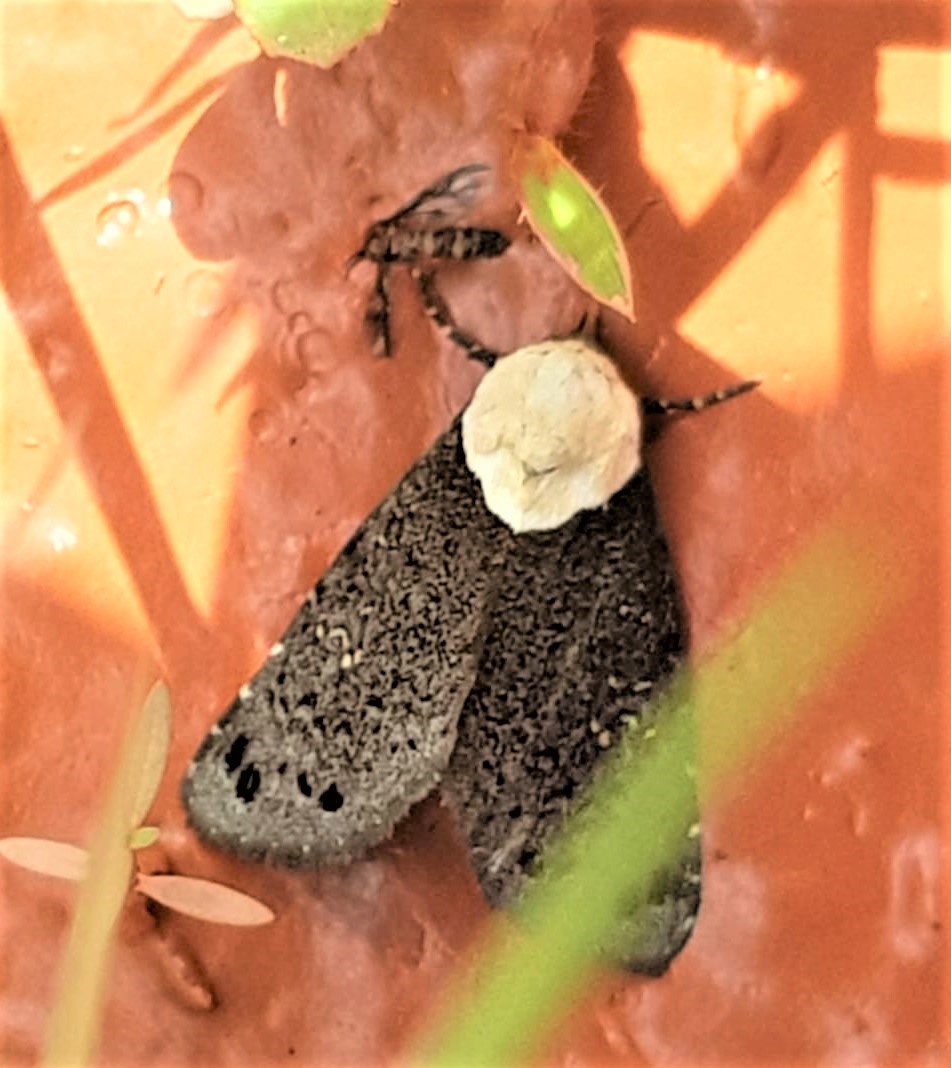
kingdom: Animalia
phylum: Arthropoda
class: Insecta
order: Lepidoptera
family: Nolidae
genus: Baileya
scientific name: Baileya rhizoleuca
